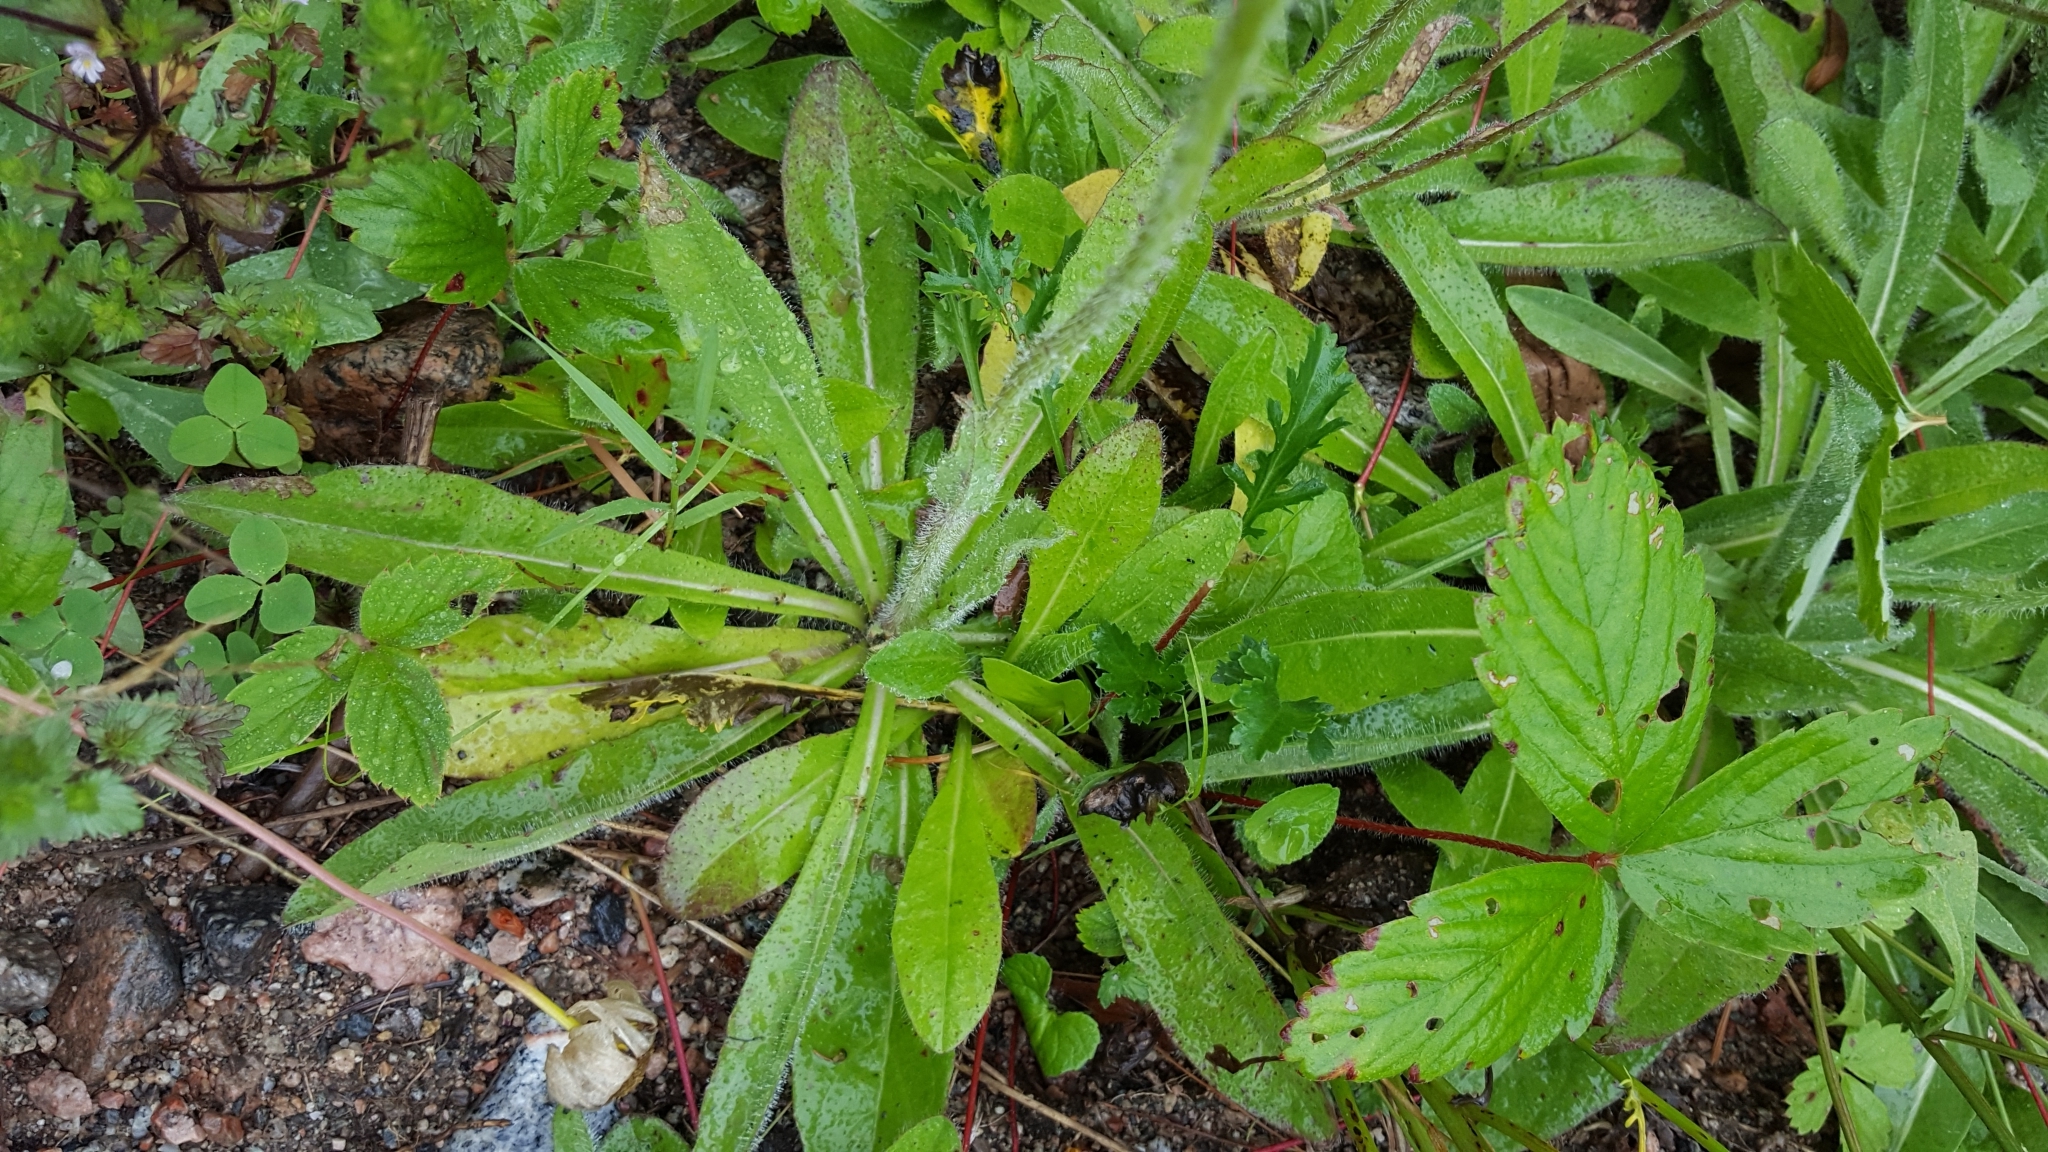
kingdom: Plantae
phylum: Tracheophyta
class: Magnoliopsida
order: Asterales
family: Asteraceae
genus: Pilosella
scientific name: Pilosella aurantiaca
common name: Fox-and-cubs
